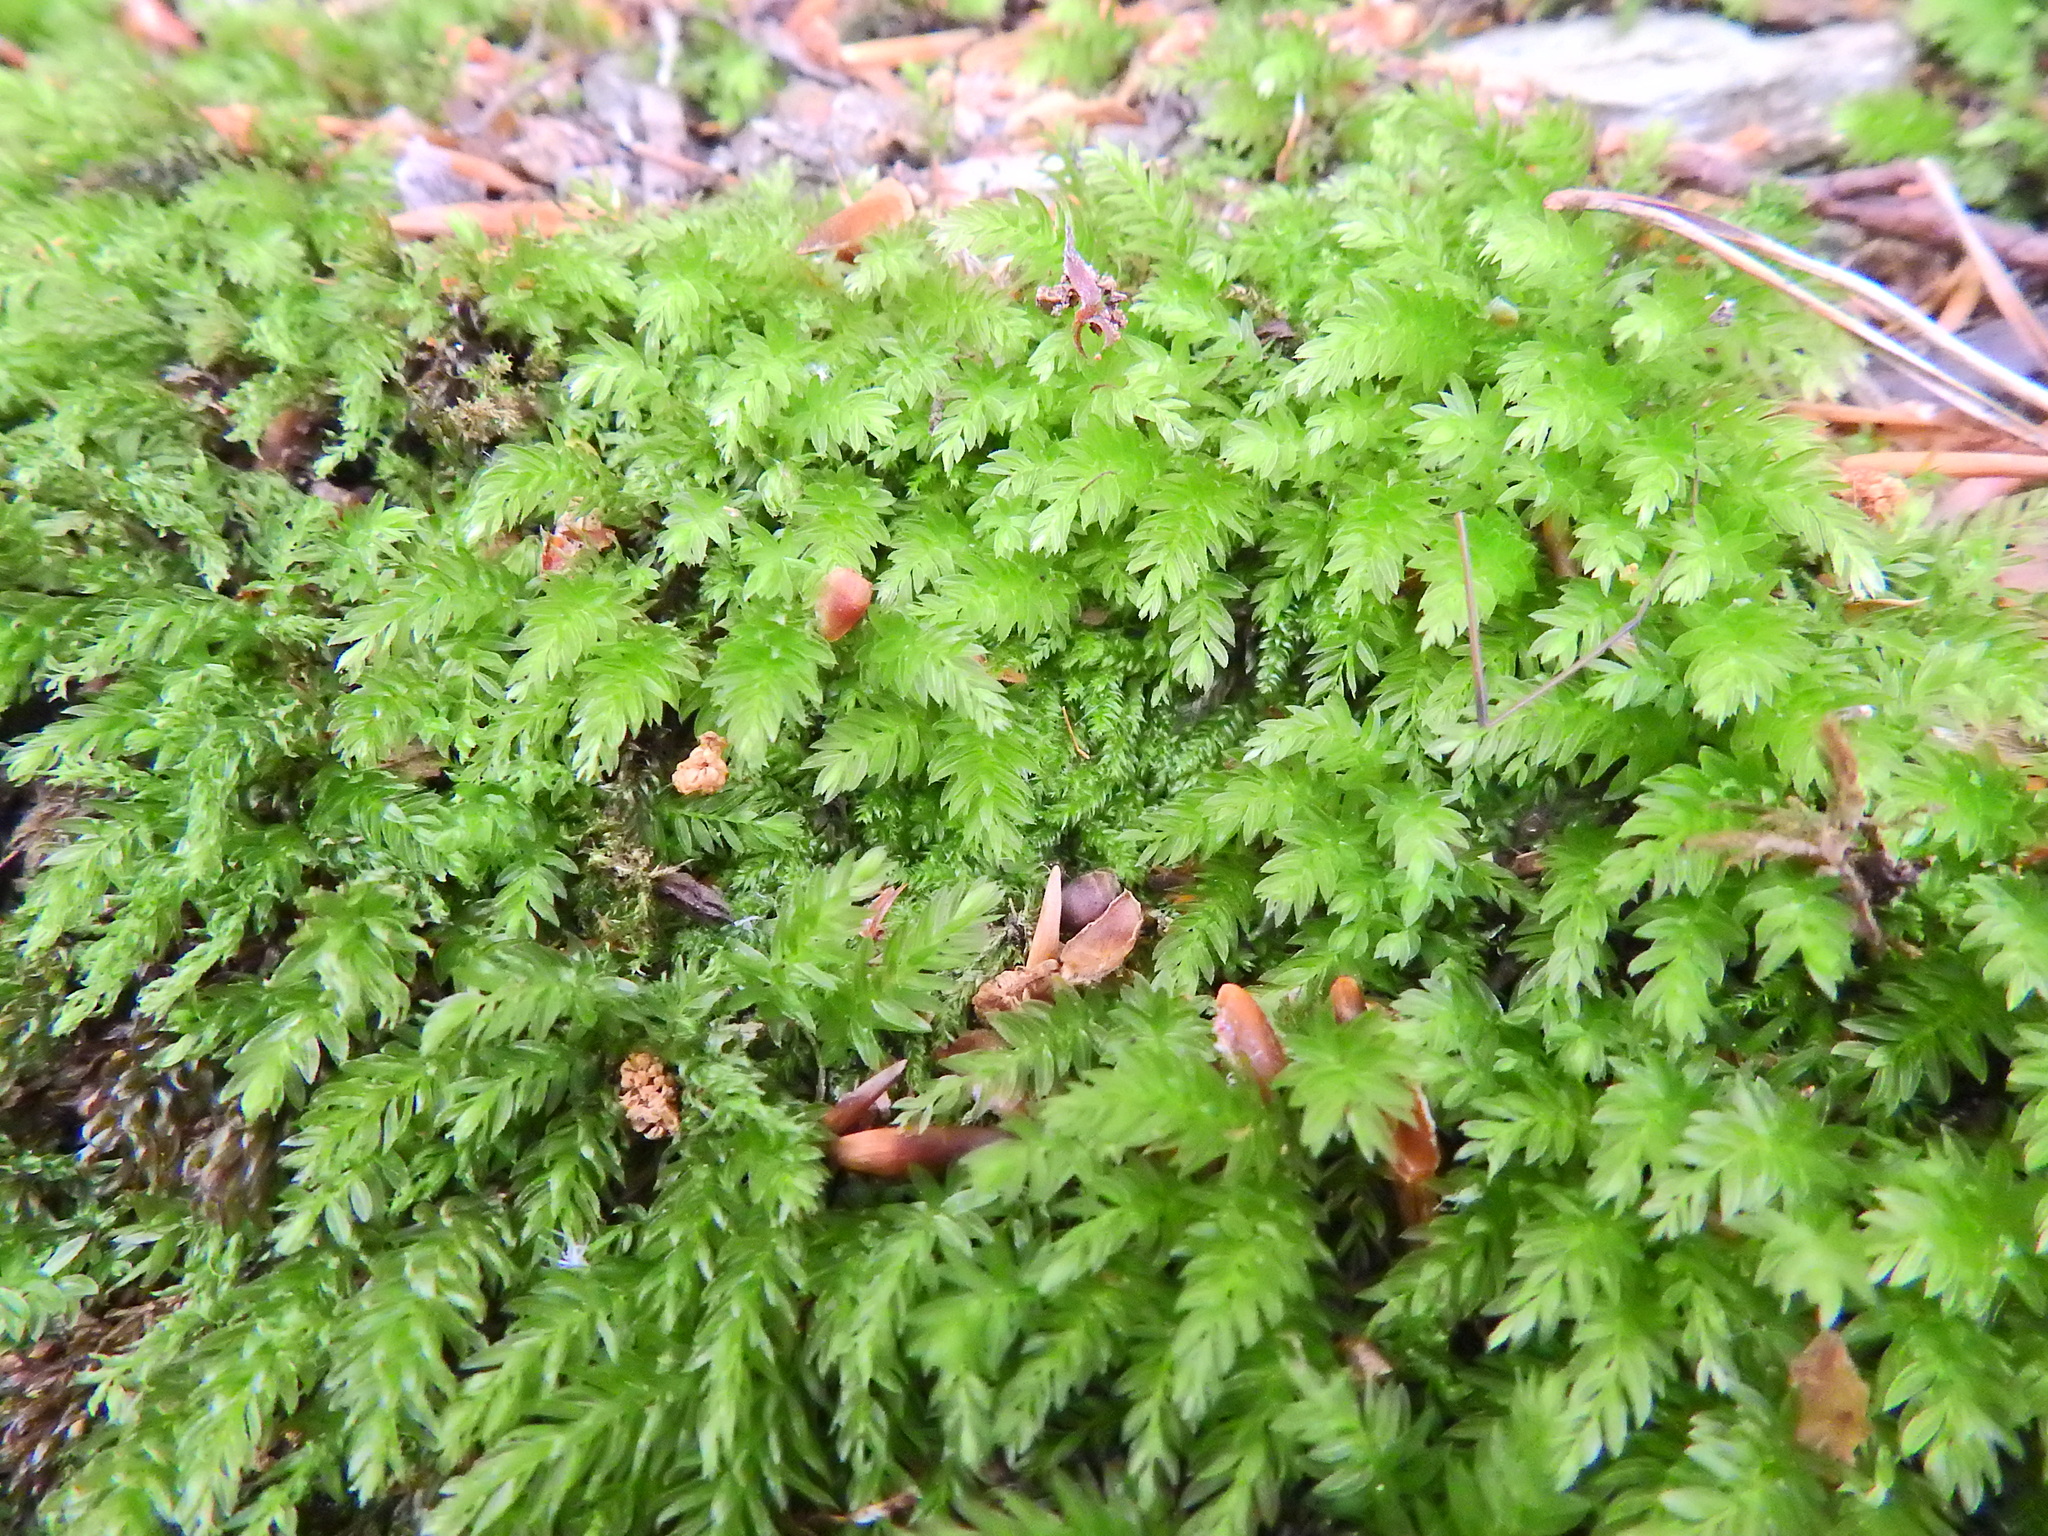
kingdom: Plantae
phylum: Bryophyta
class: Bryopsida
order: Bryales
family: Mniaceae
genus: Mnium
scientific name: Mnium hornum
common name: Swan's-neck leafy moss
